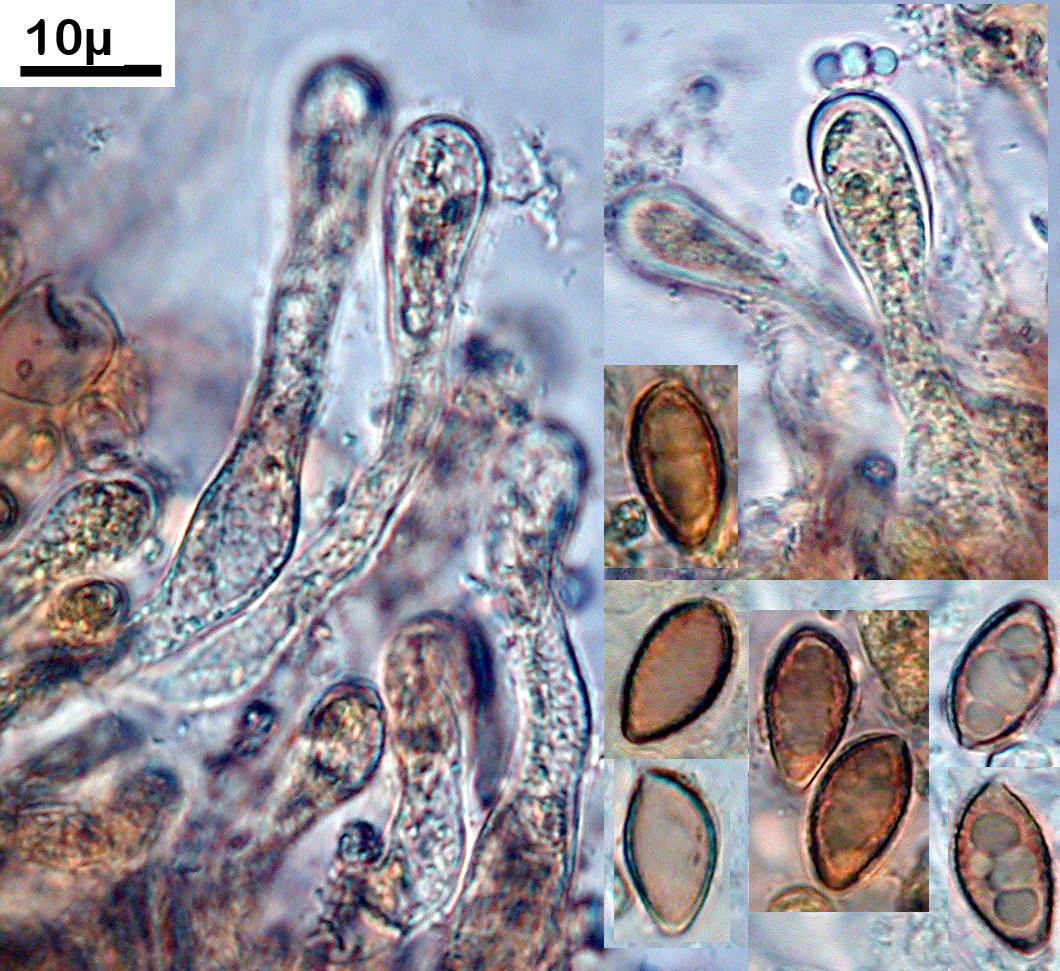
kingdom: Fungi
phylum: Basidiomycota
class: Agaricomycetes
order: Agaricales
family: Hymenogastraceae
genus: Hebeloma
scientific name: Hebeloma pseudofragilipes
